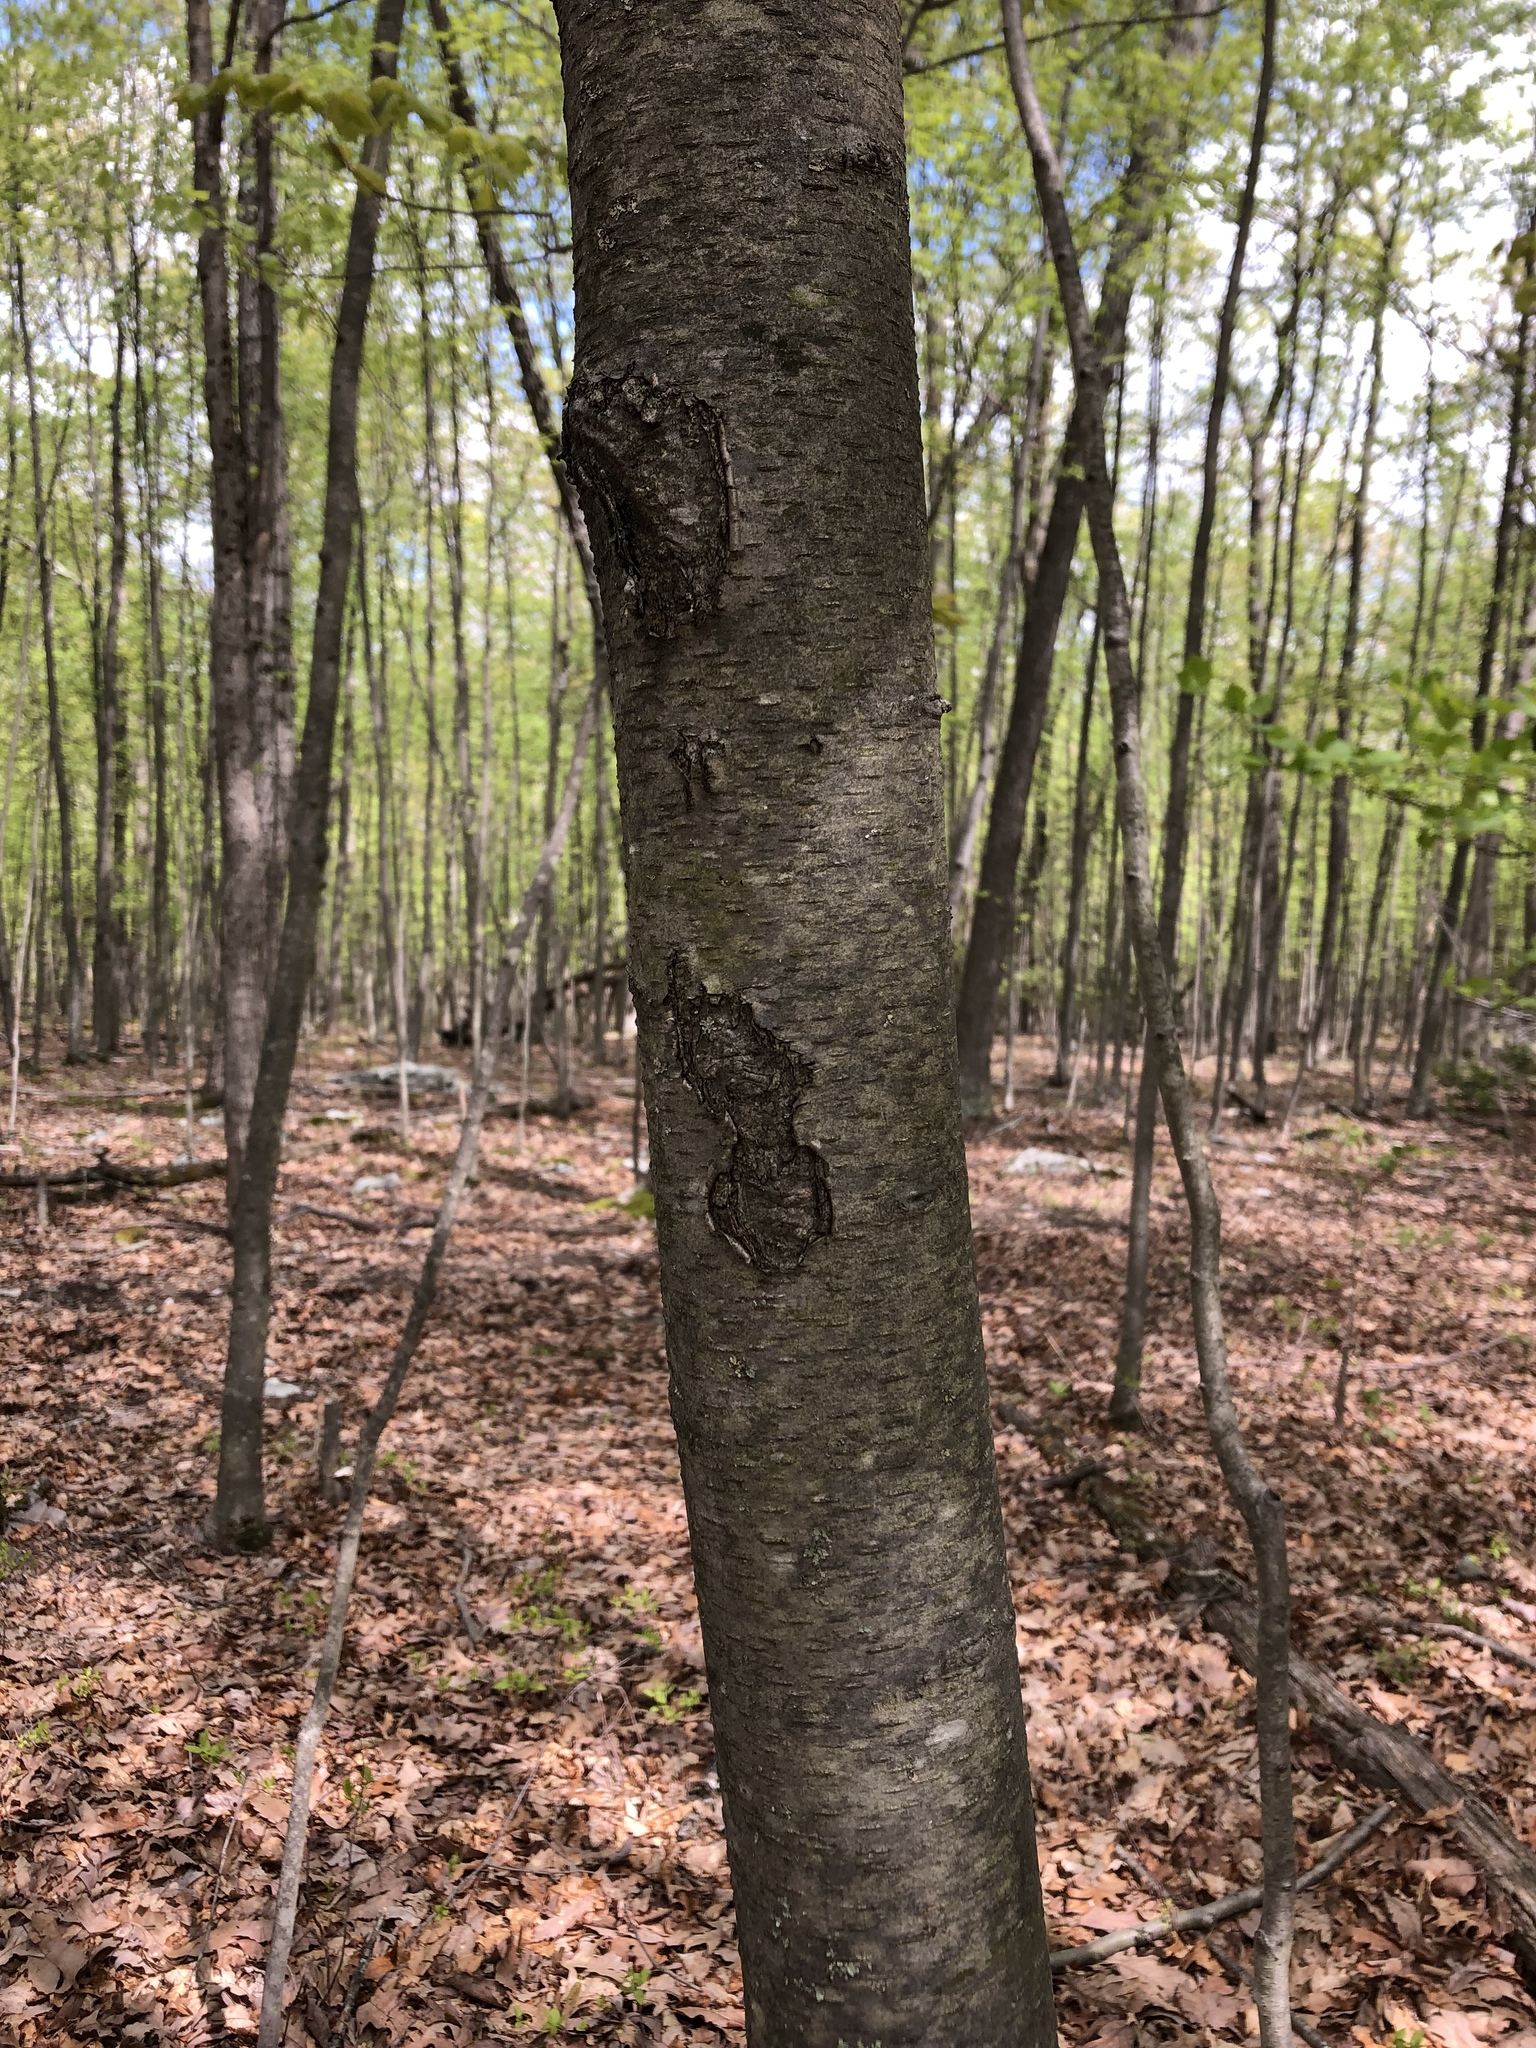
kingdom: Plantae
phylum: Tracheophyta
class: Magnoliopsida
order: Fagales
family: Betulaceae
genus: Betula
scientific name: Betula lenta
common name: Black birch
